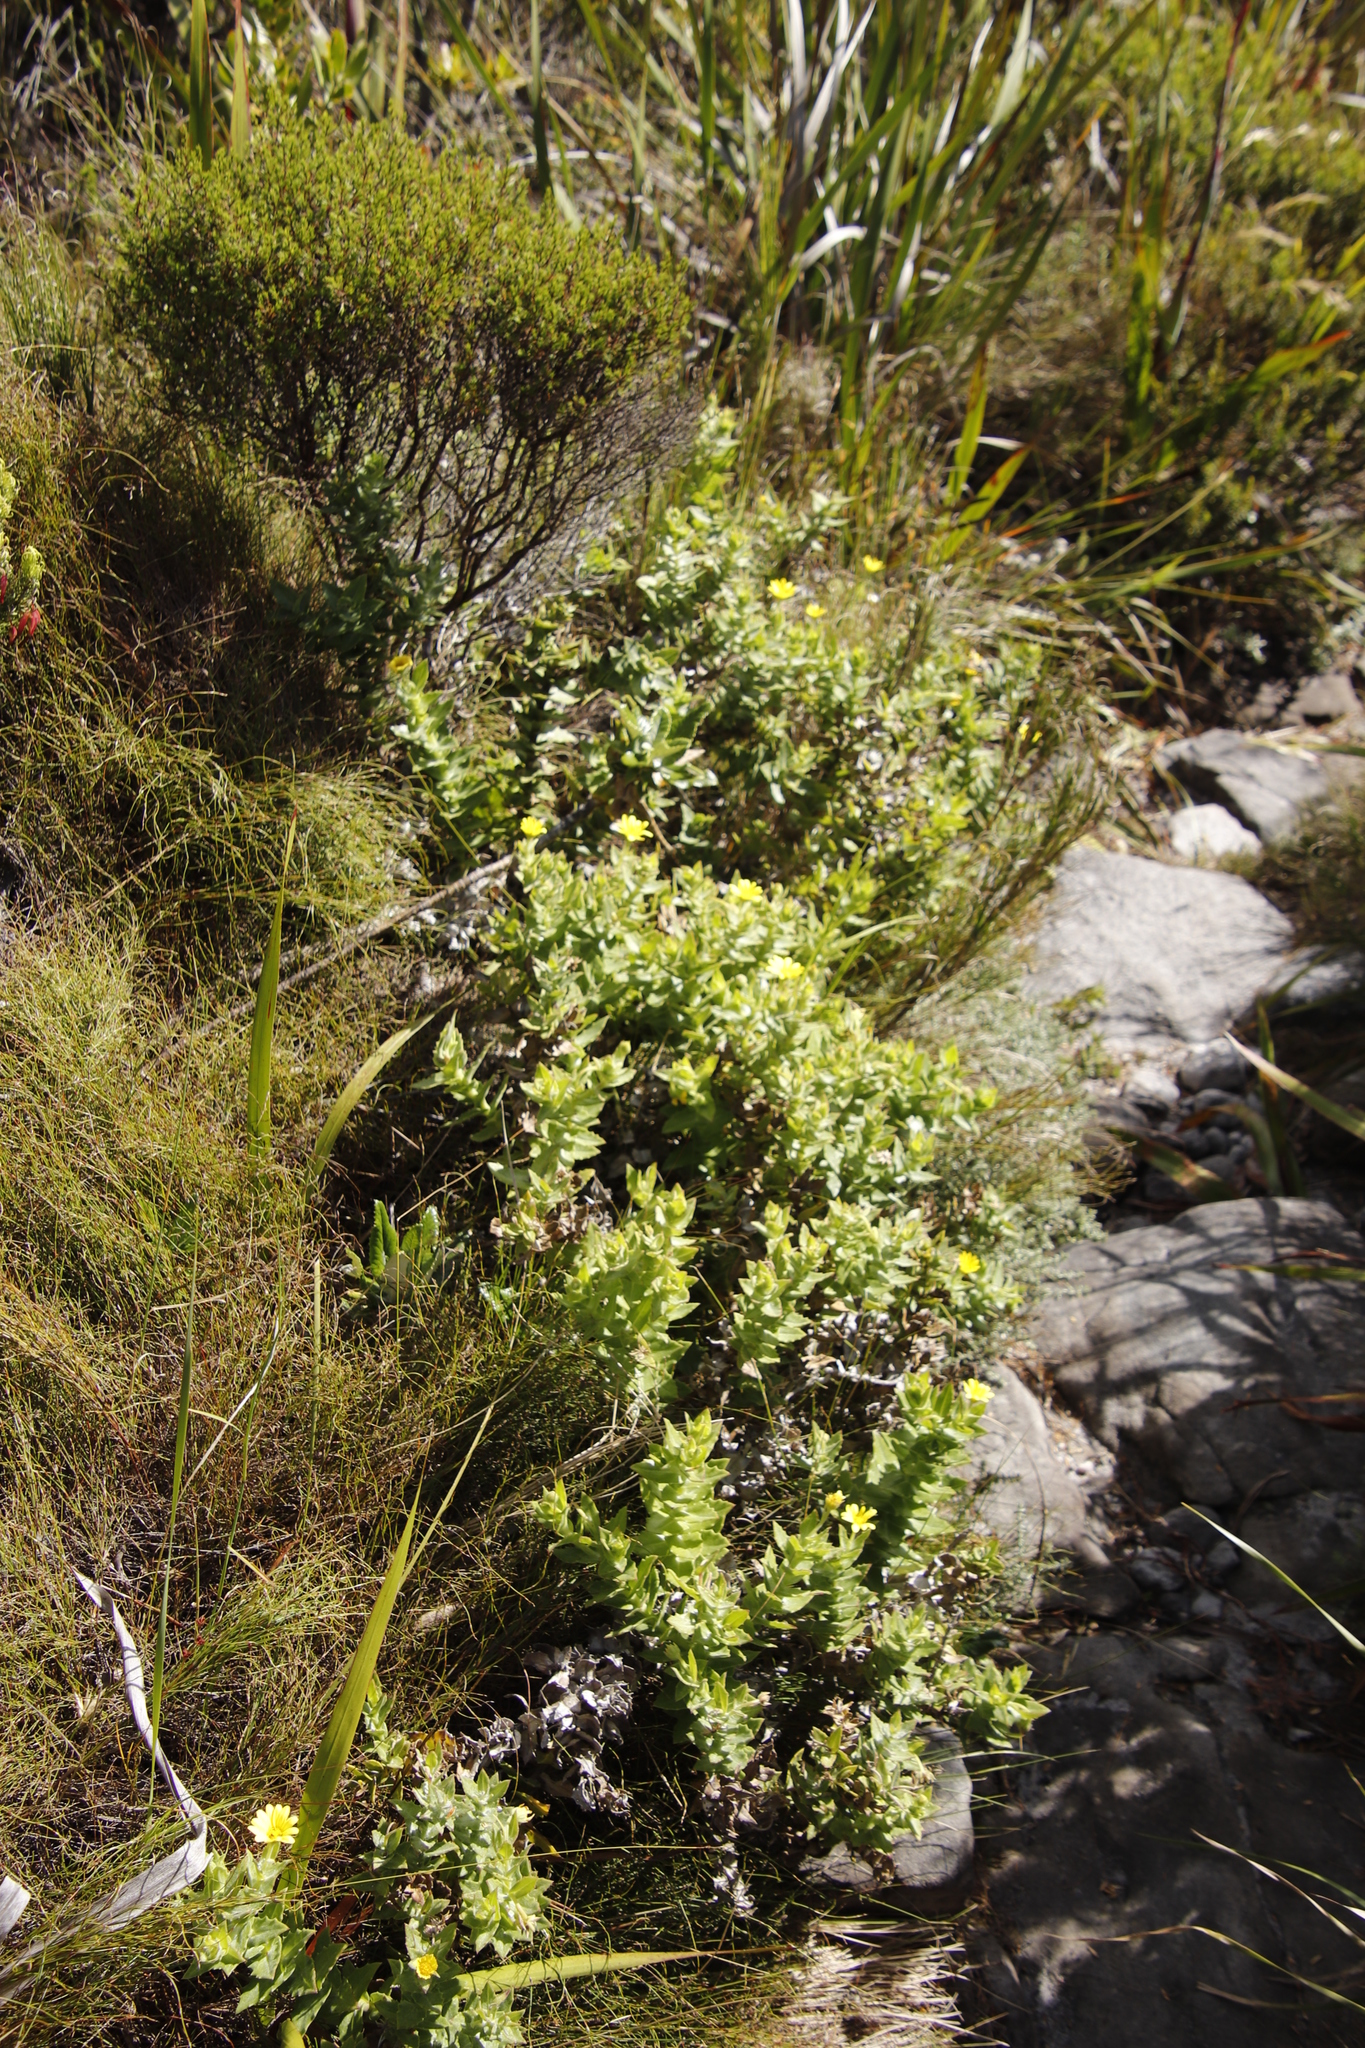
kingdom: Plantae
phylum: Tracheophyta
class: Magnoliopsida
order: Asterales
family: Asteraceae
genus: Osteospermum
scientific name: Osteospermum ilicifolium
